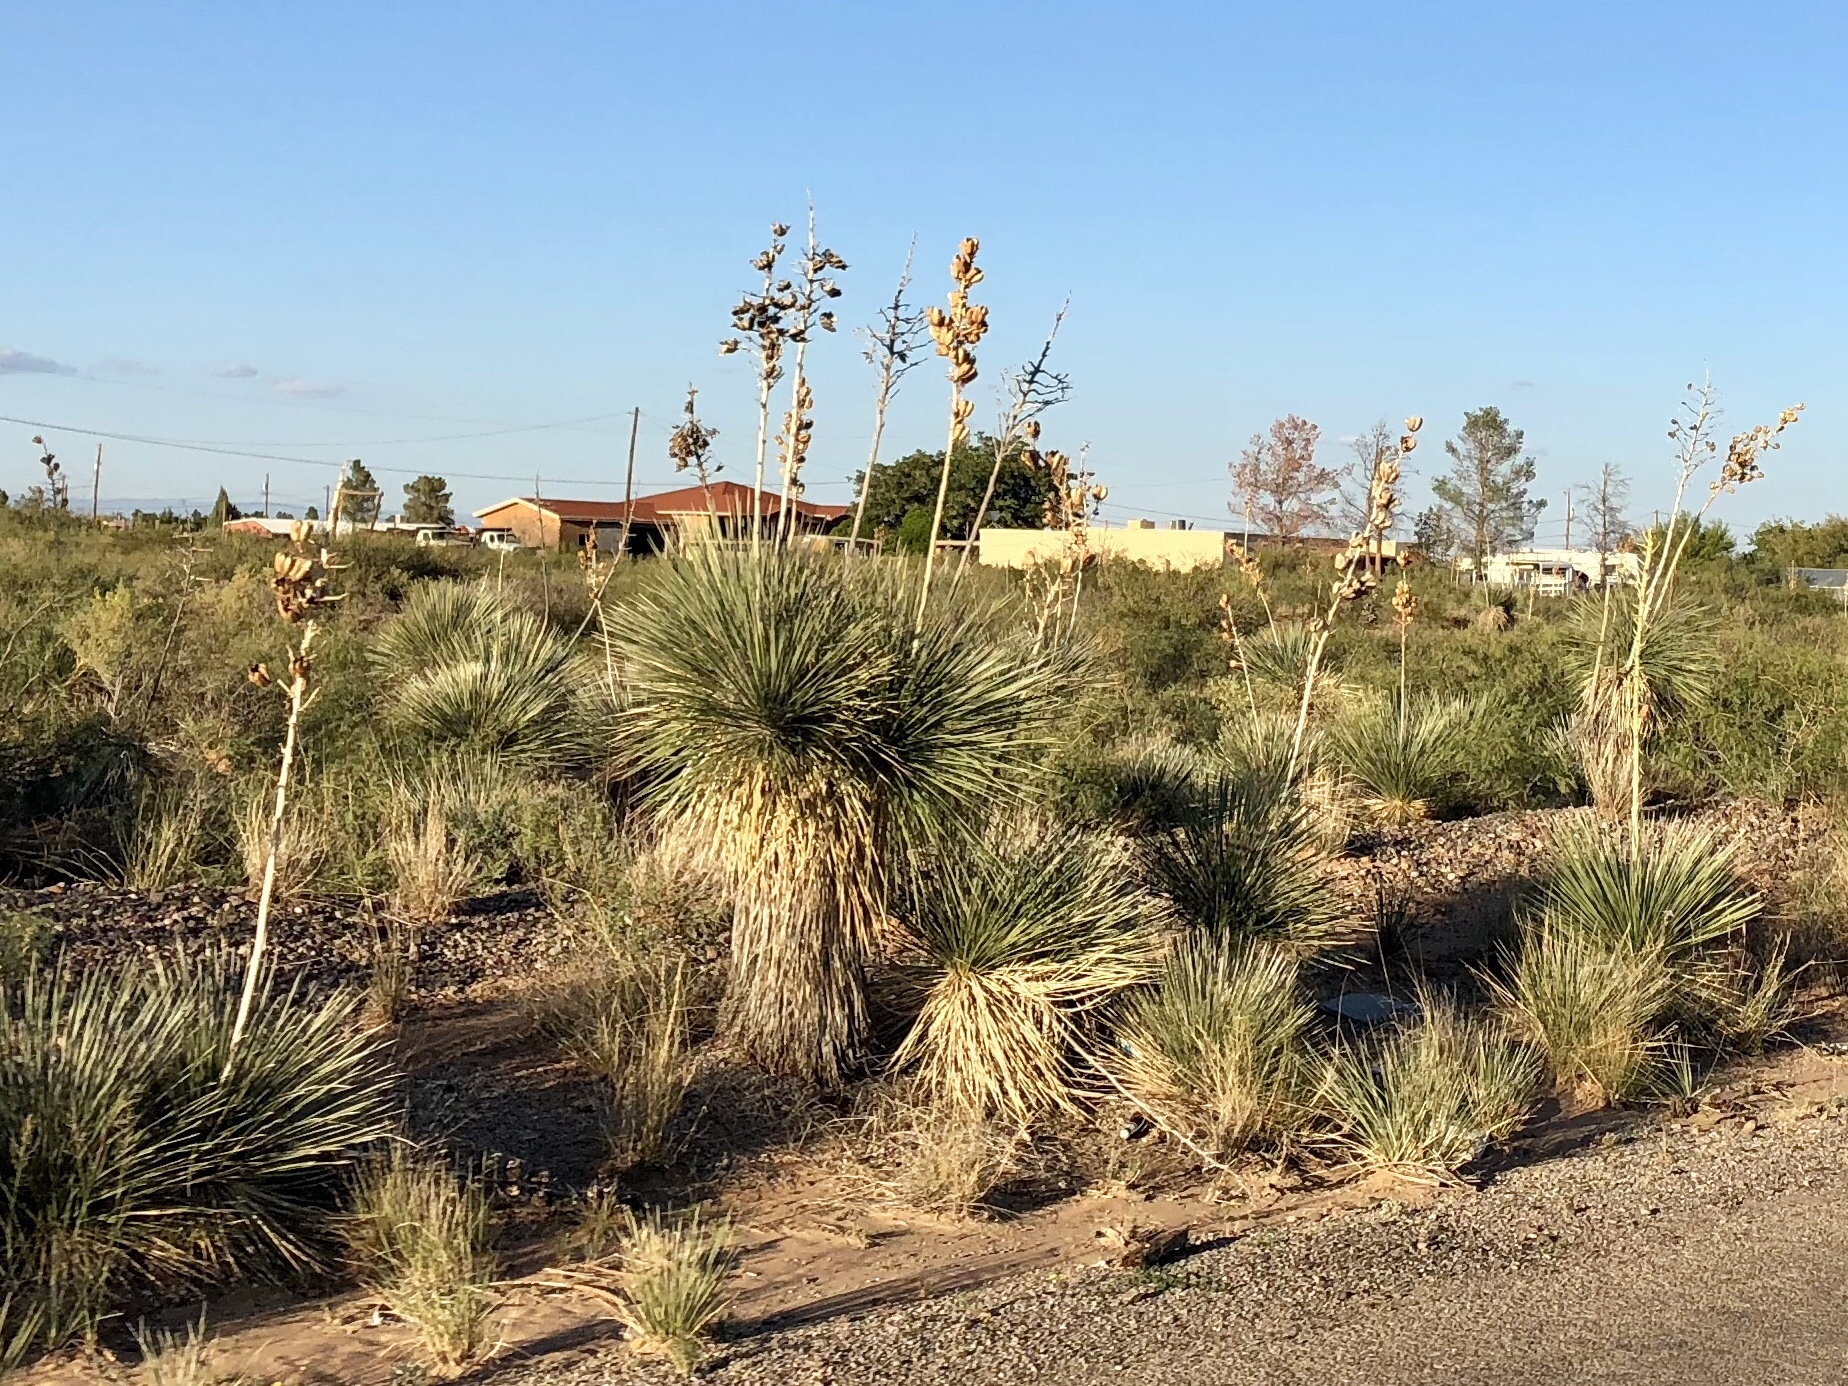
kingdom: Plantae
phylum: Tracheophyta
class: Liliopsida
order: Asparagales
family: Asparagaceae
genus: Yucca
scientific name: Yucca elata
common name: Palmella
